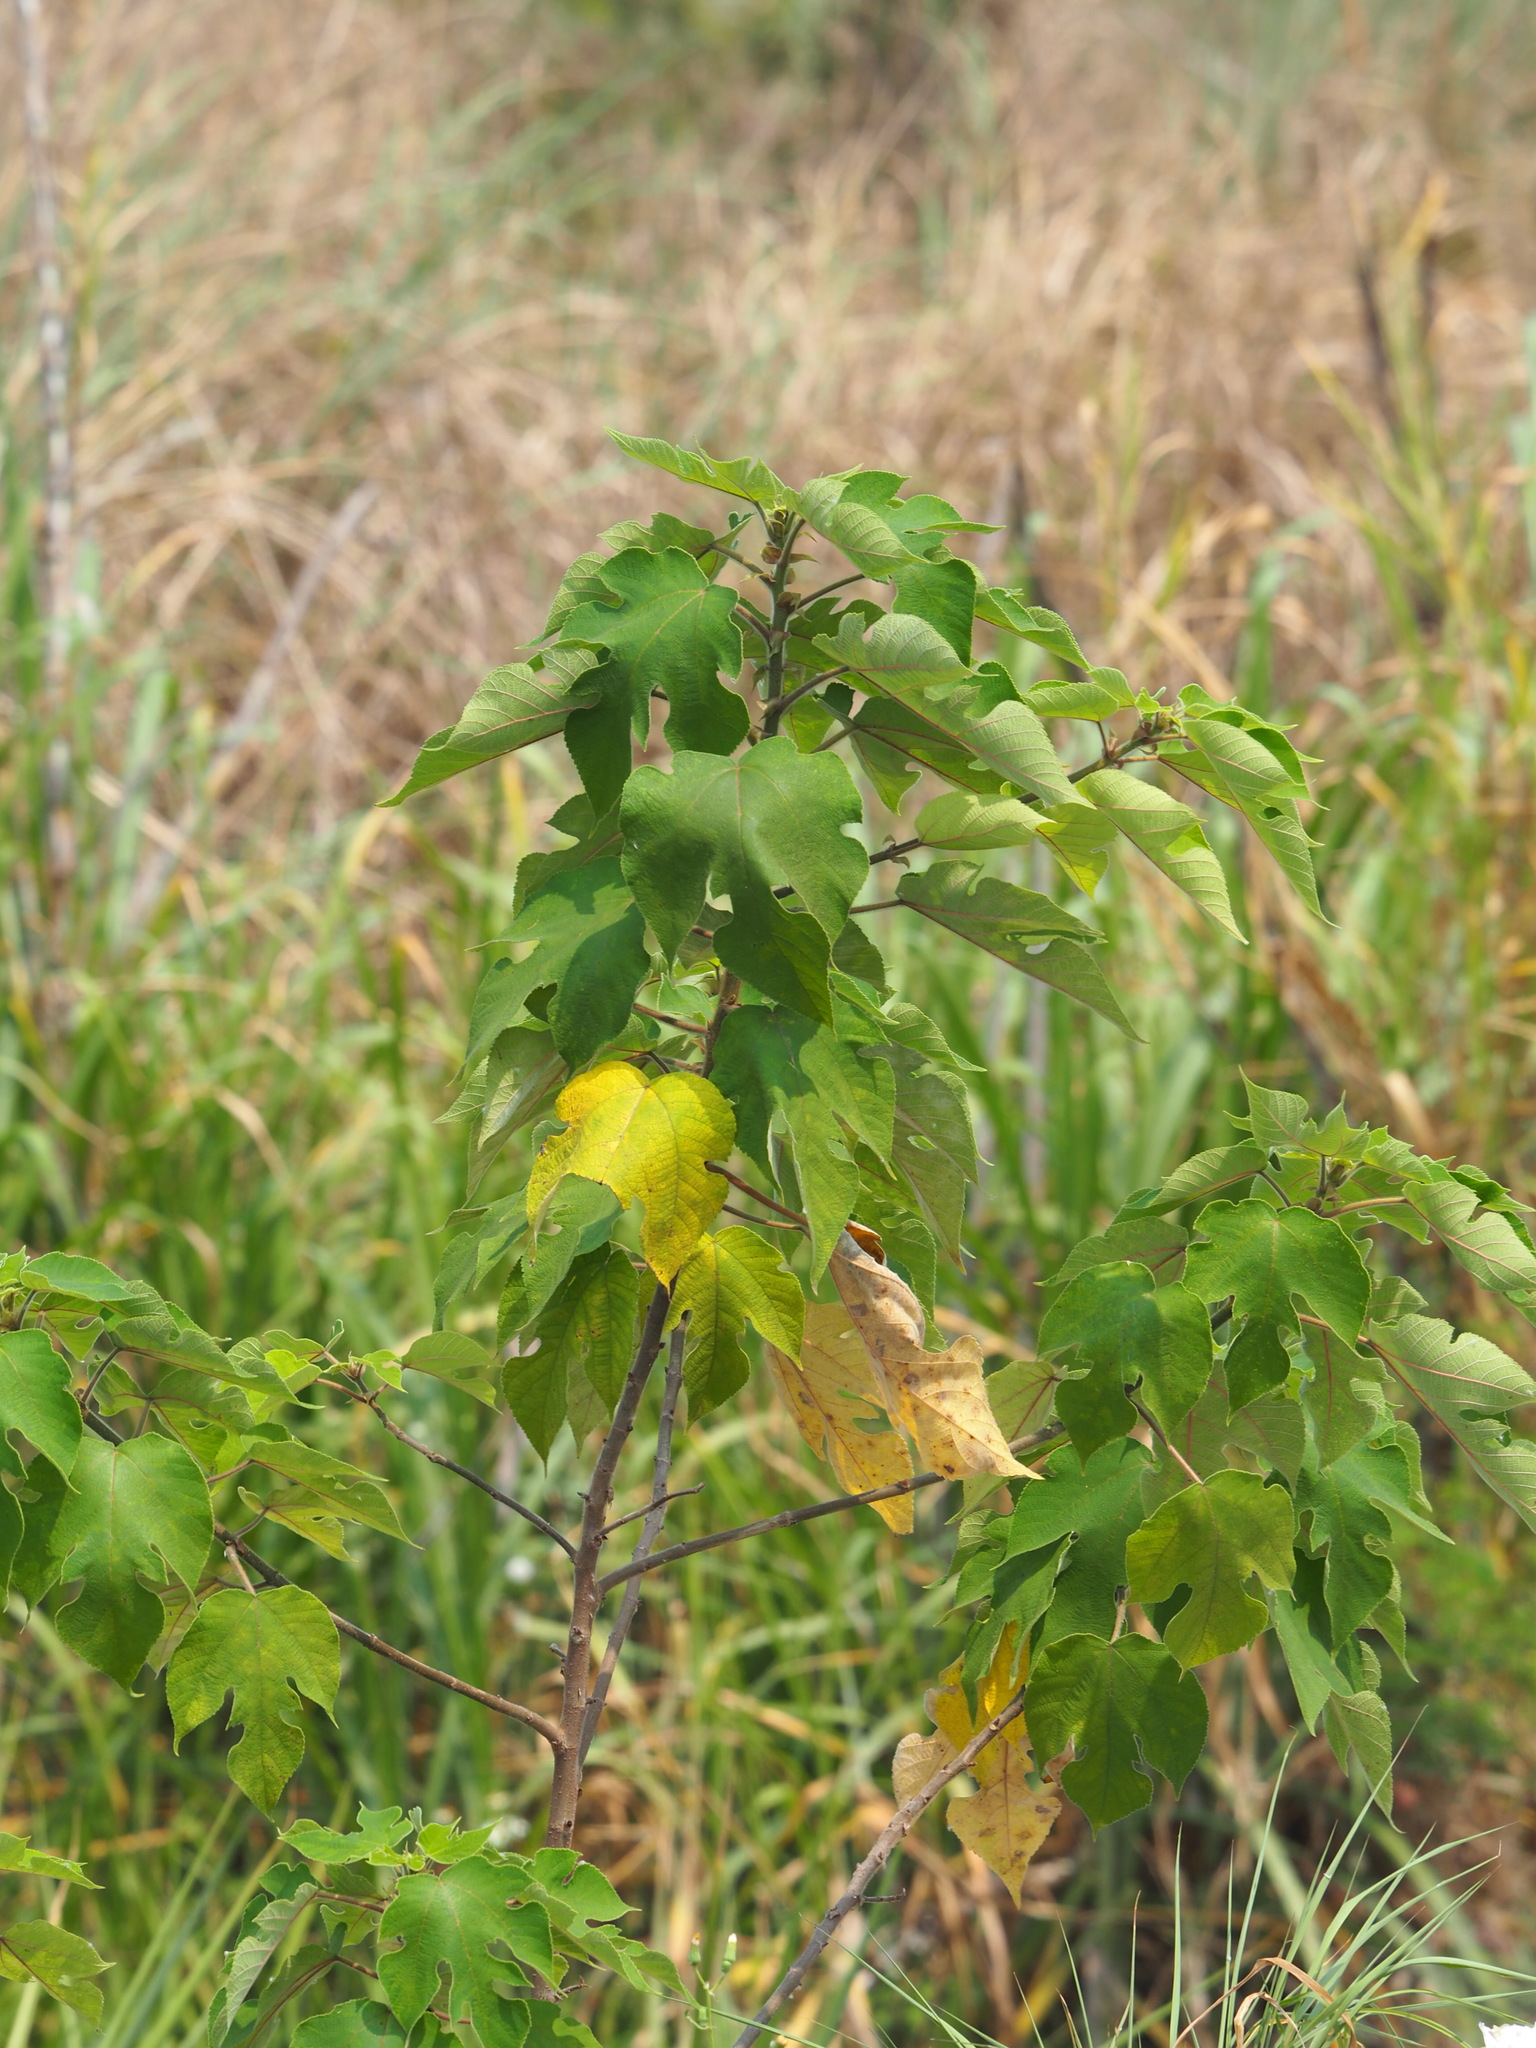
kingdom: Plantae
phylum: Tracheophyta
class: Magnoliopsida
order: Rosales
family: Moraceae
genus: Broussonetia
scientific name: Broussonetia papyrifera
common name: Paper mulberry
